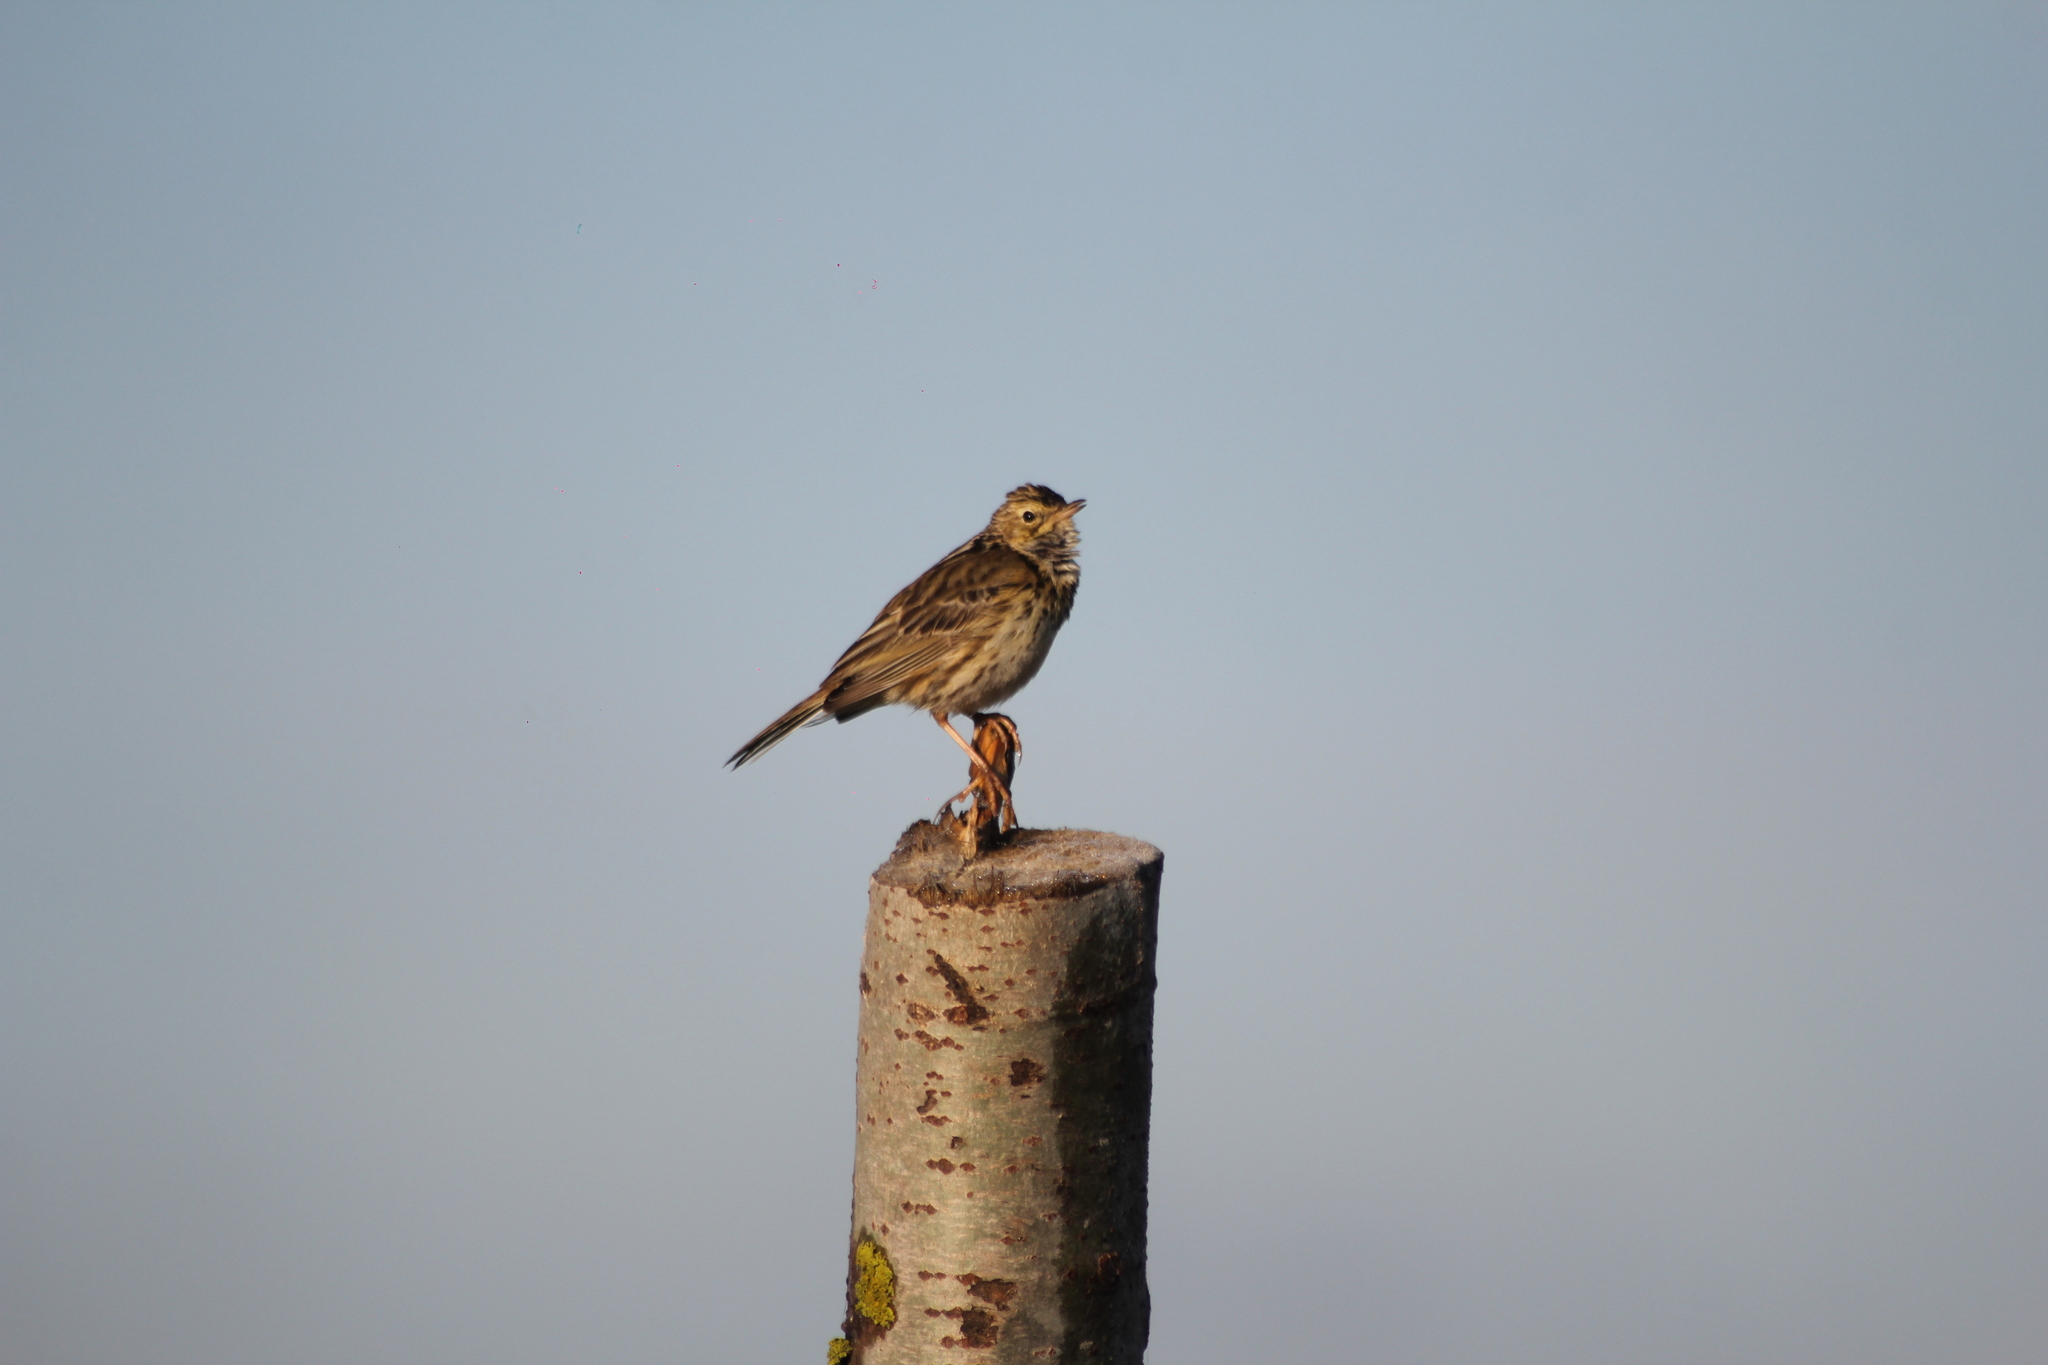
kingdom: Animalia
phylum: Chordata
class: Aves
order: Passeriformes
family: Motacillidae
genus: Anthus
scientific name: Anthus correndera
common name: Correndera pipit
